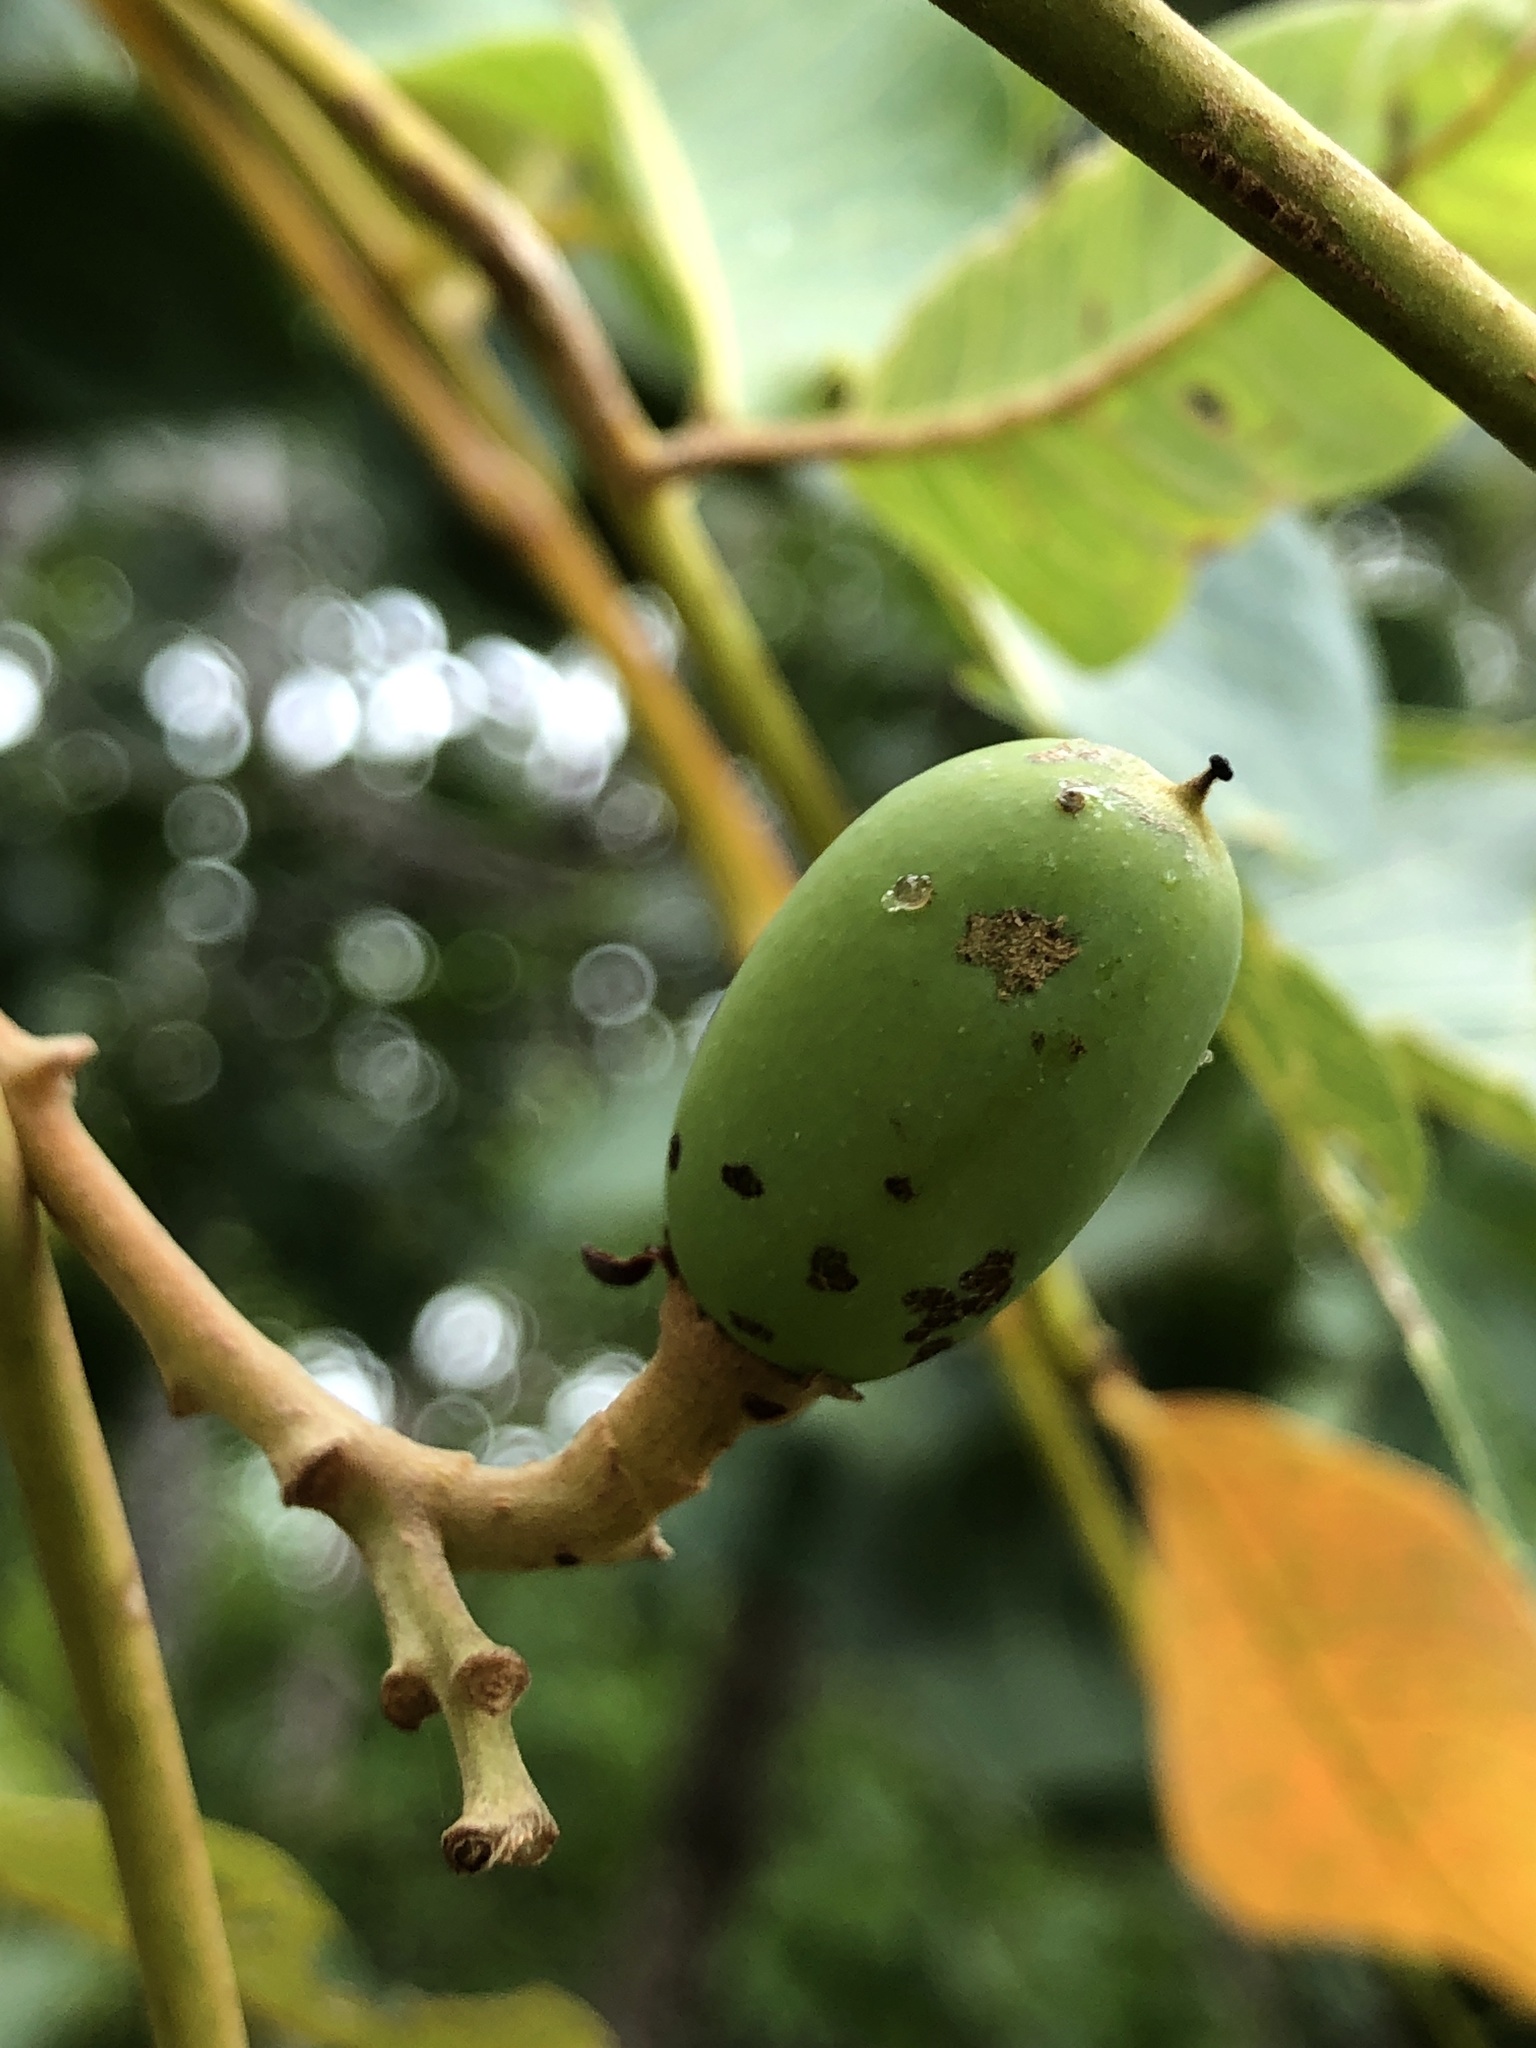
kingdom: Plantae
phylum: Tracheophyta
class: Magnoliopsida
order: Sapindales
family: Burseraceae
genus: Canarium
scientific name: Canarium australianum
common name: Island white-beech
